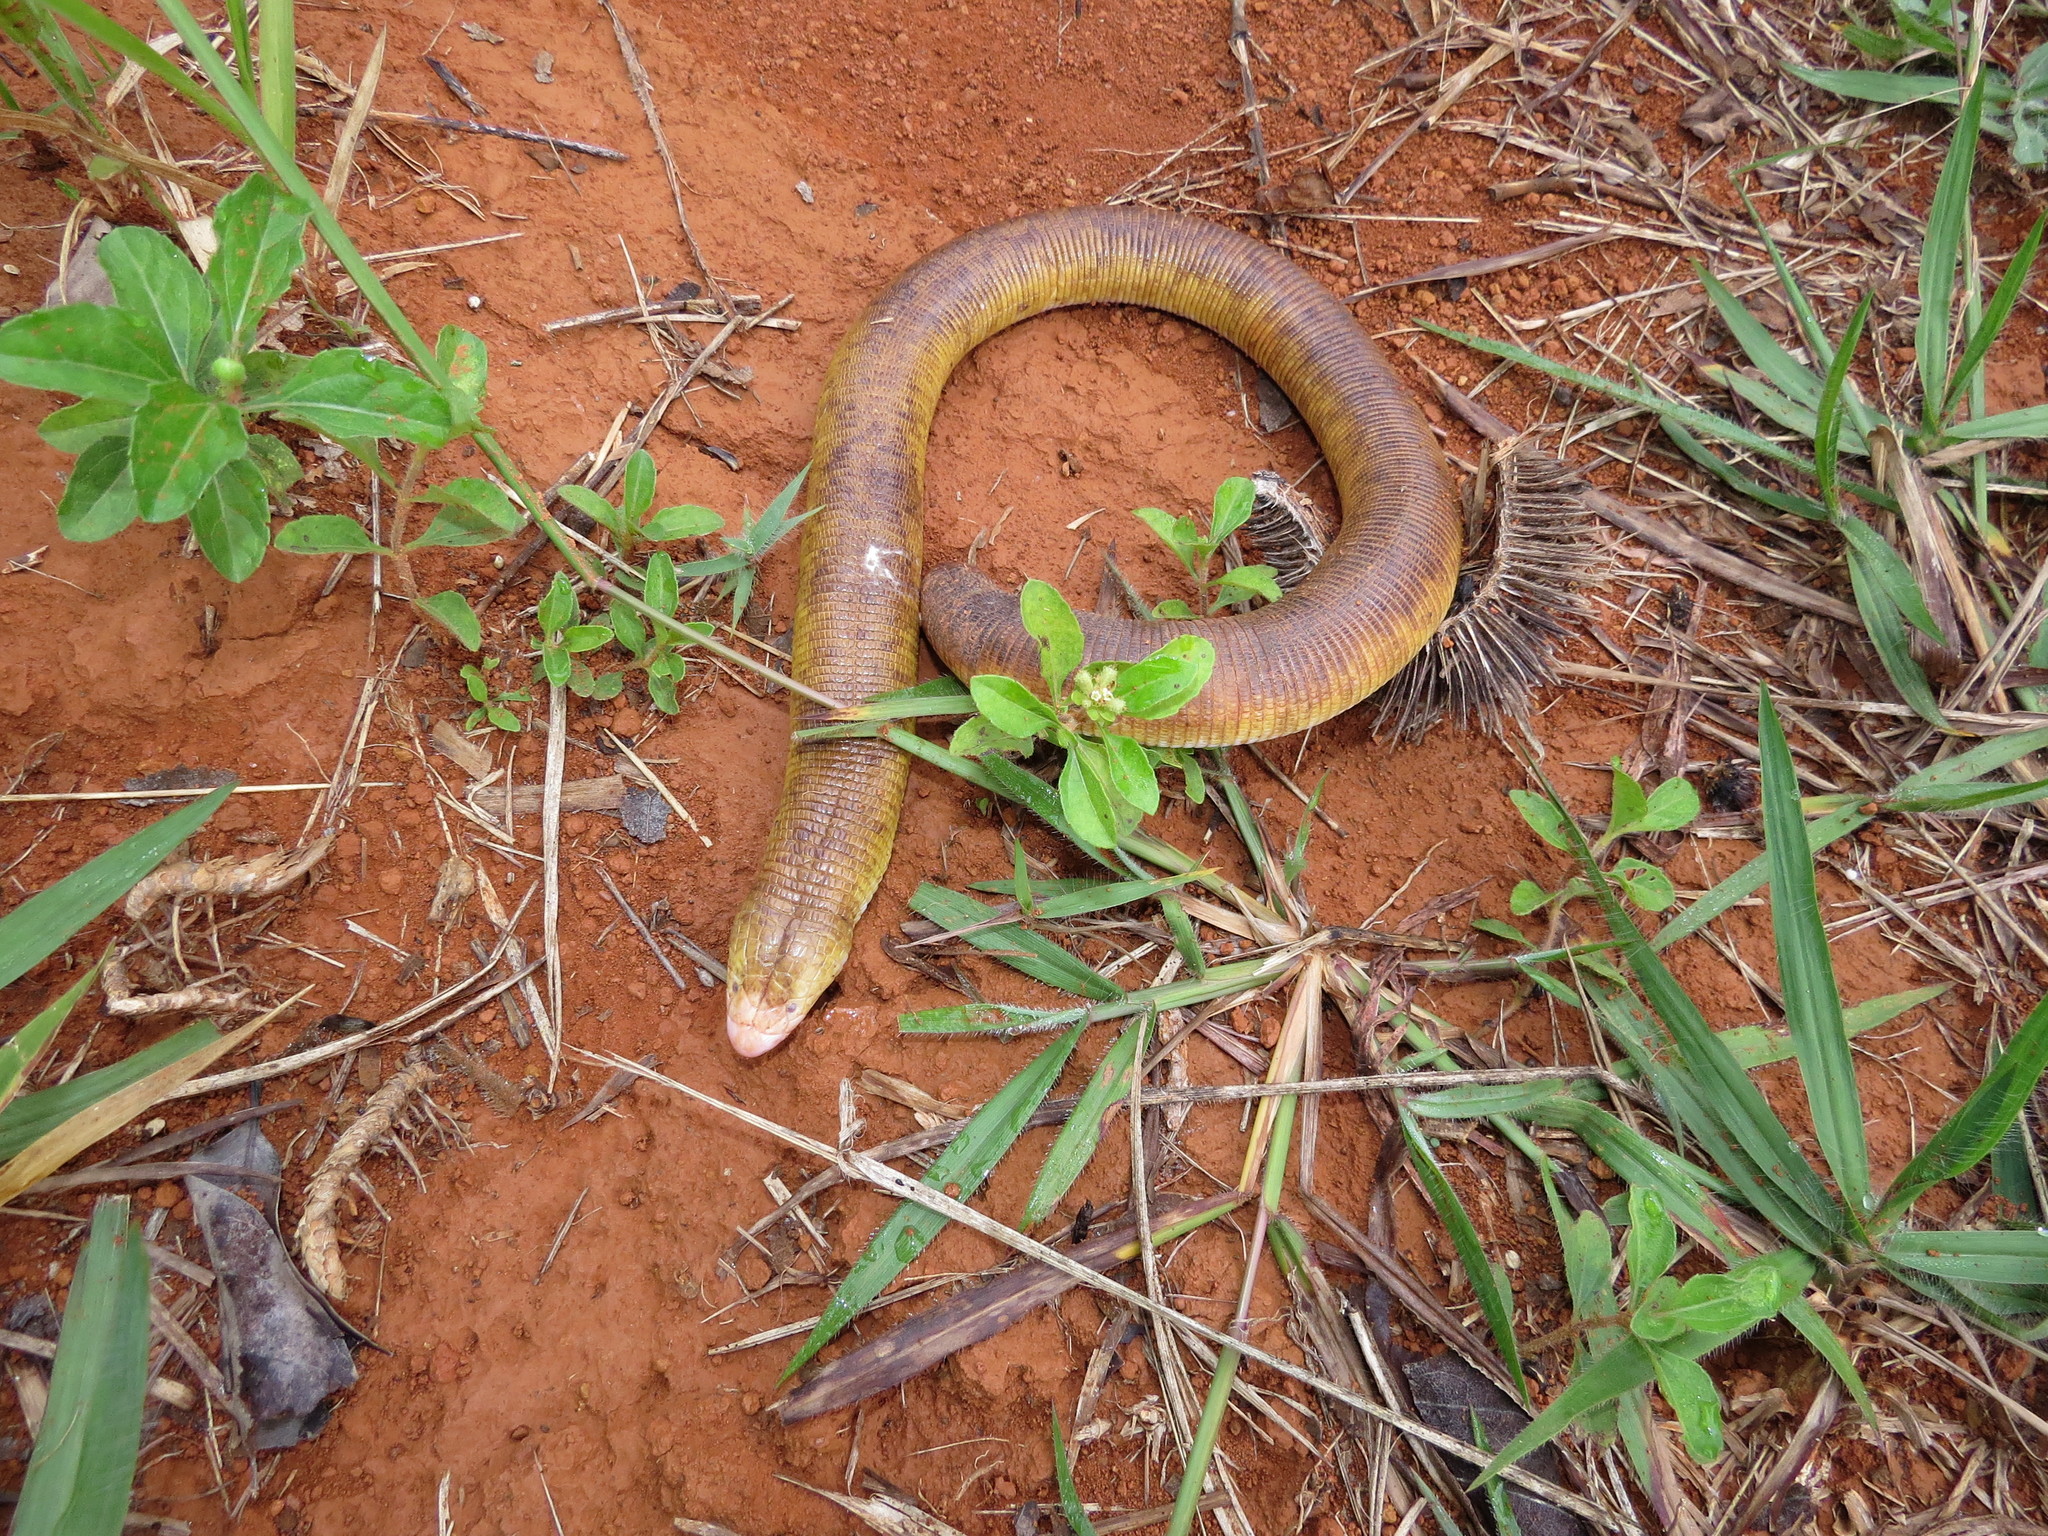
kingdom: Animalia
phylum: Chordata
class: Squamata
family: Amphisbaenidae
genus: Amphisbaena
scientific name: Amphisbaena alba
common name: Red worm lizard
